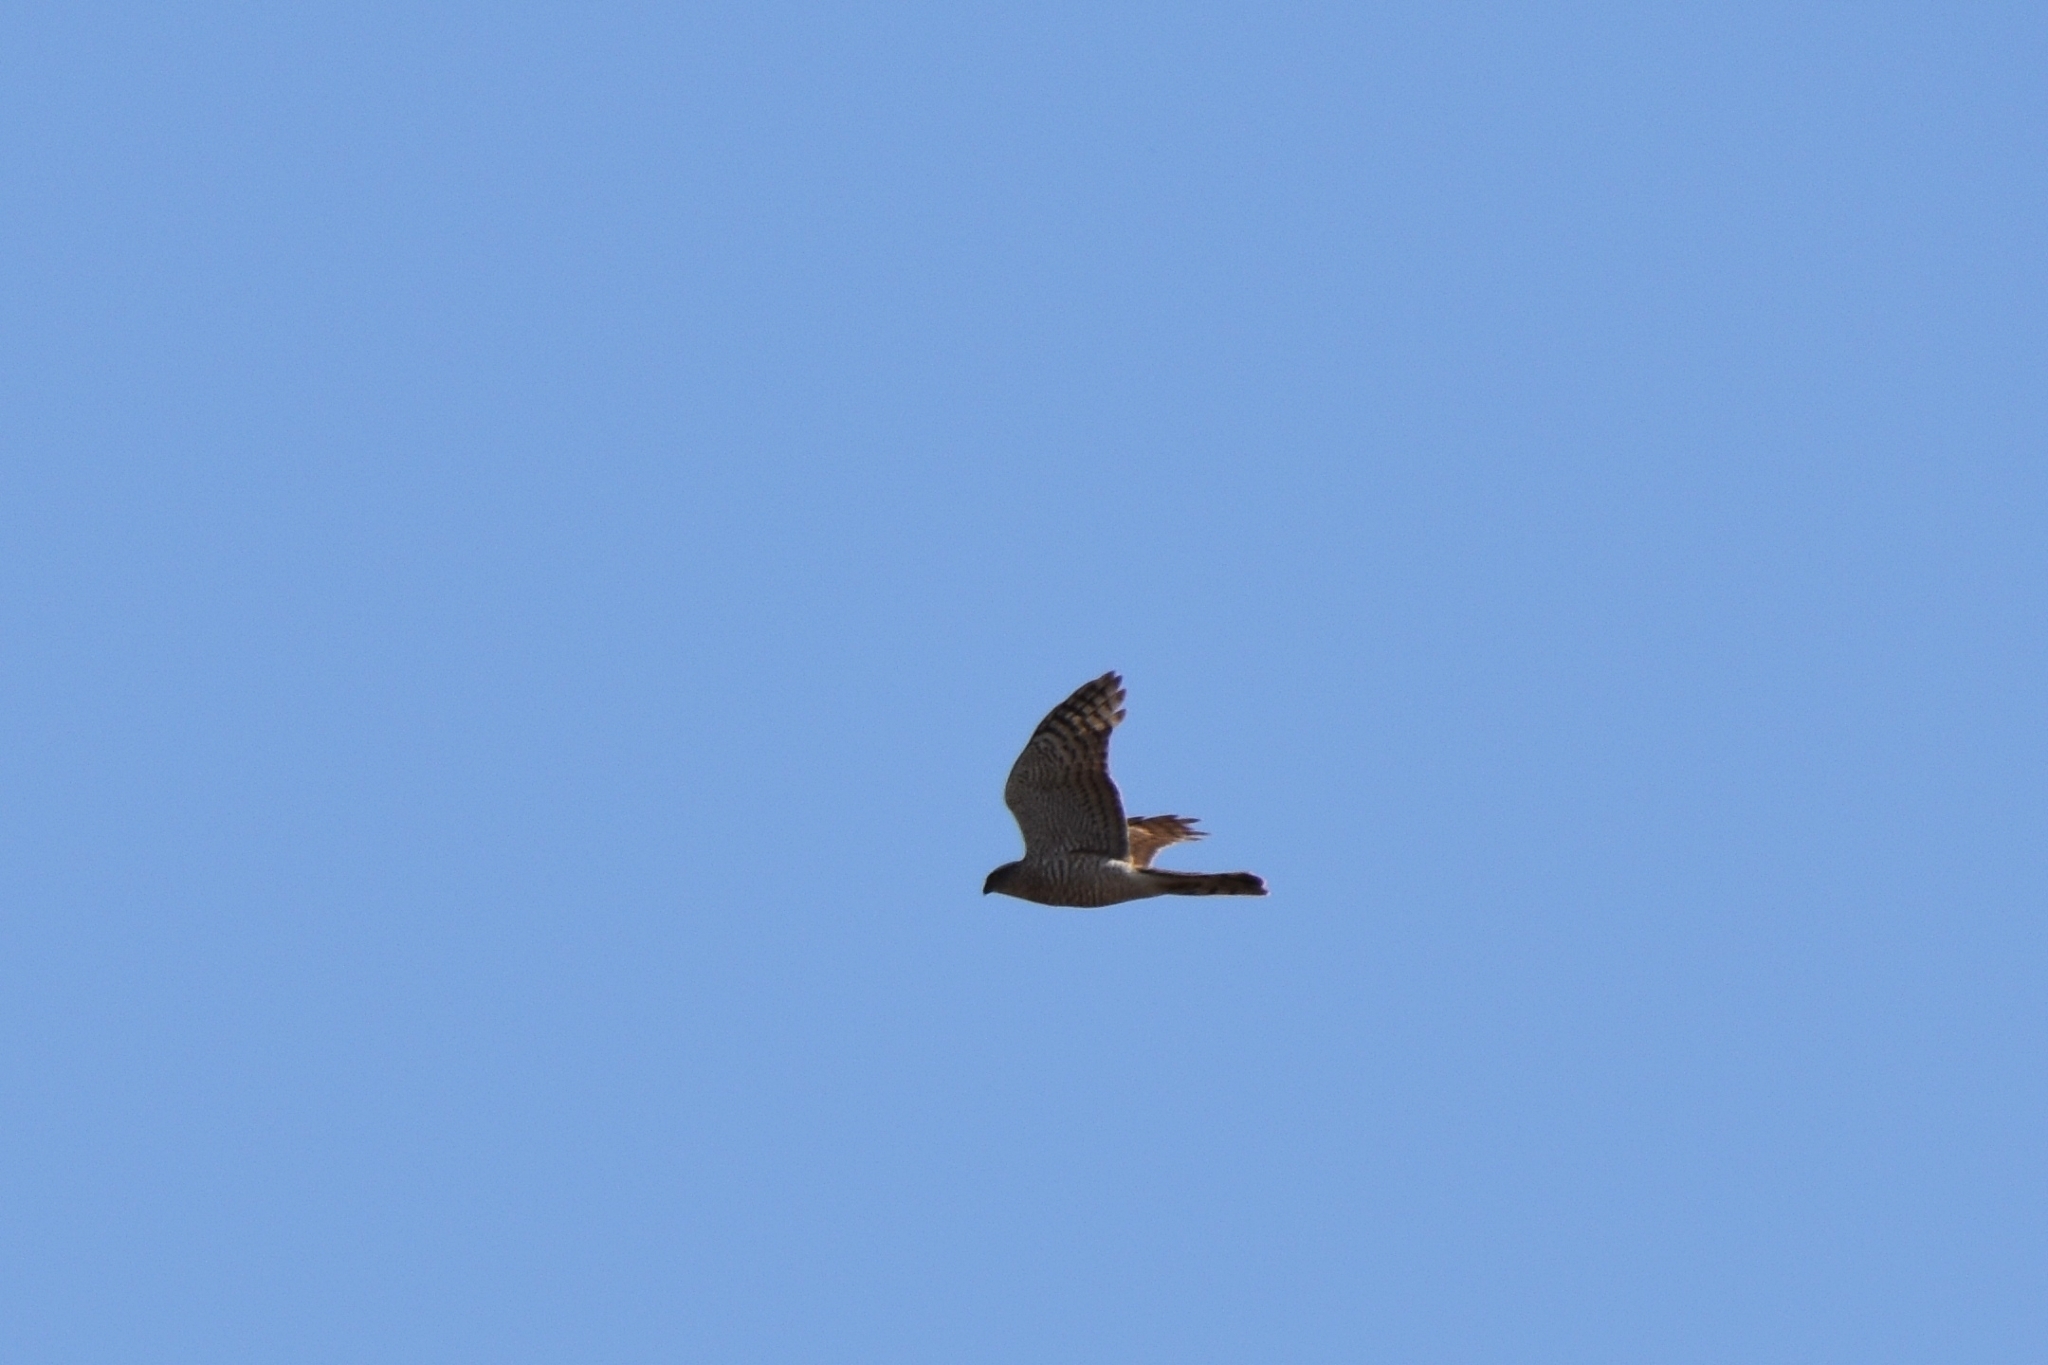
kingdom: Animalia
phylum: Chordata
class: Aves
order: Accipitriformes
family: Accipitridae
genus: Accipiter
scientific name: Accipiter nisus
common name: Eurasian sparrowhawk
